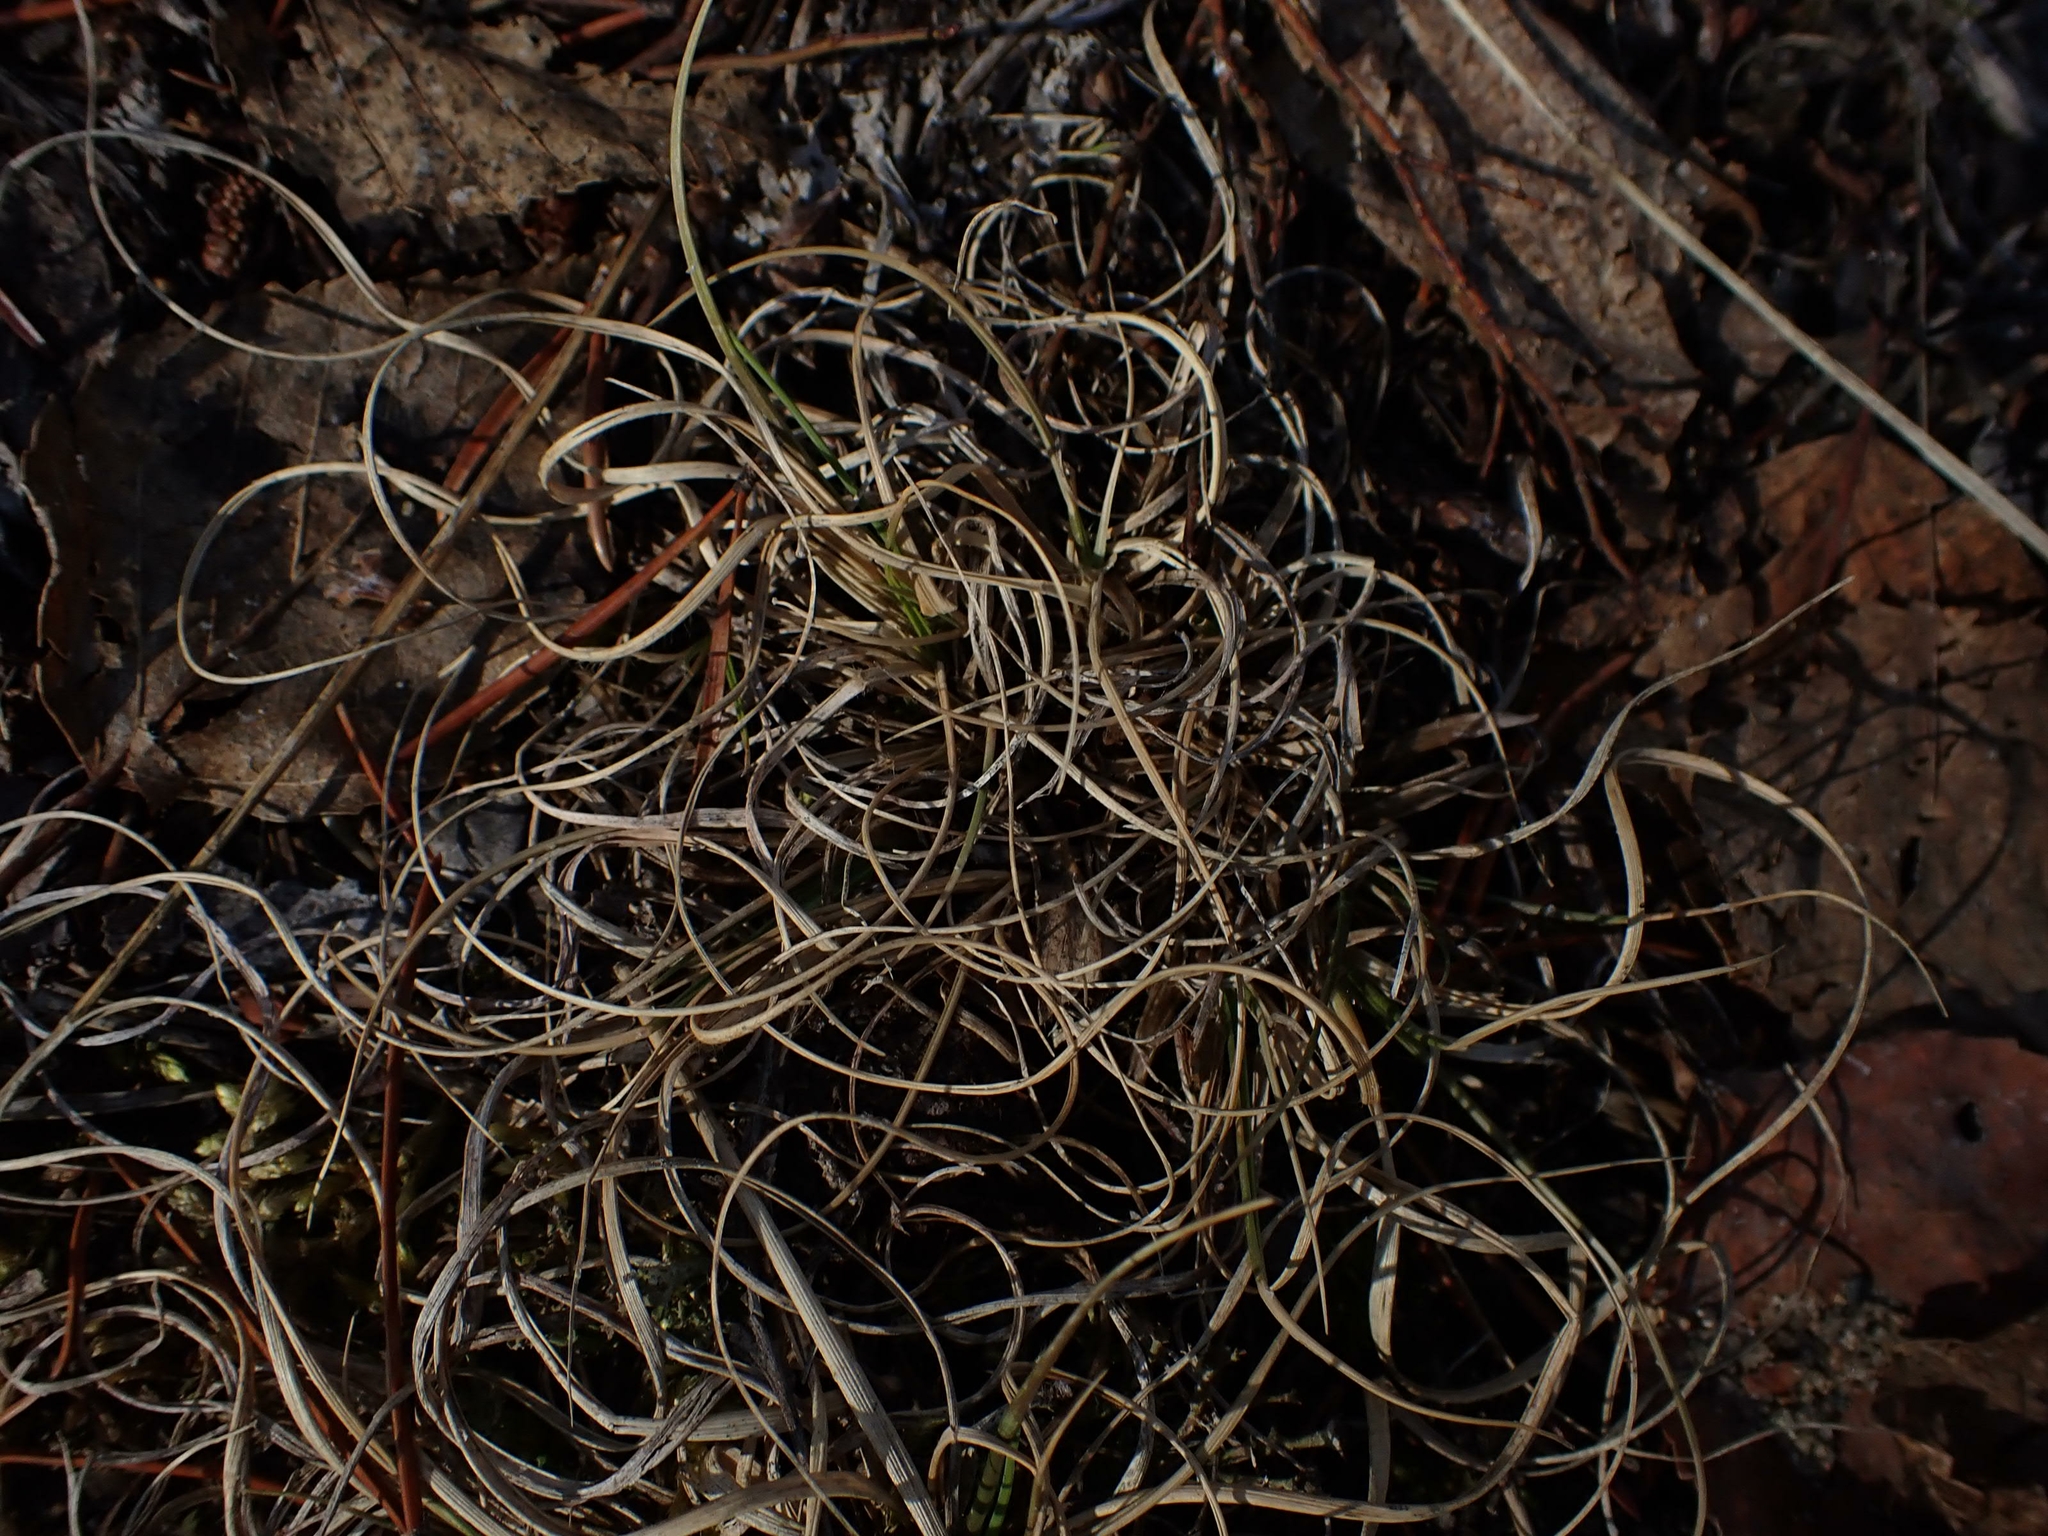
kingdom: Plantae
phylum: Tracheophyta
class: Liliopsida
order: Poales
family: Poaceae
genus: Danthonia
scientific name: Danthonia spicata
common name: Common wild oatgrass
